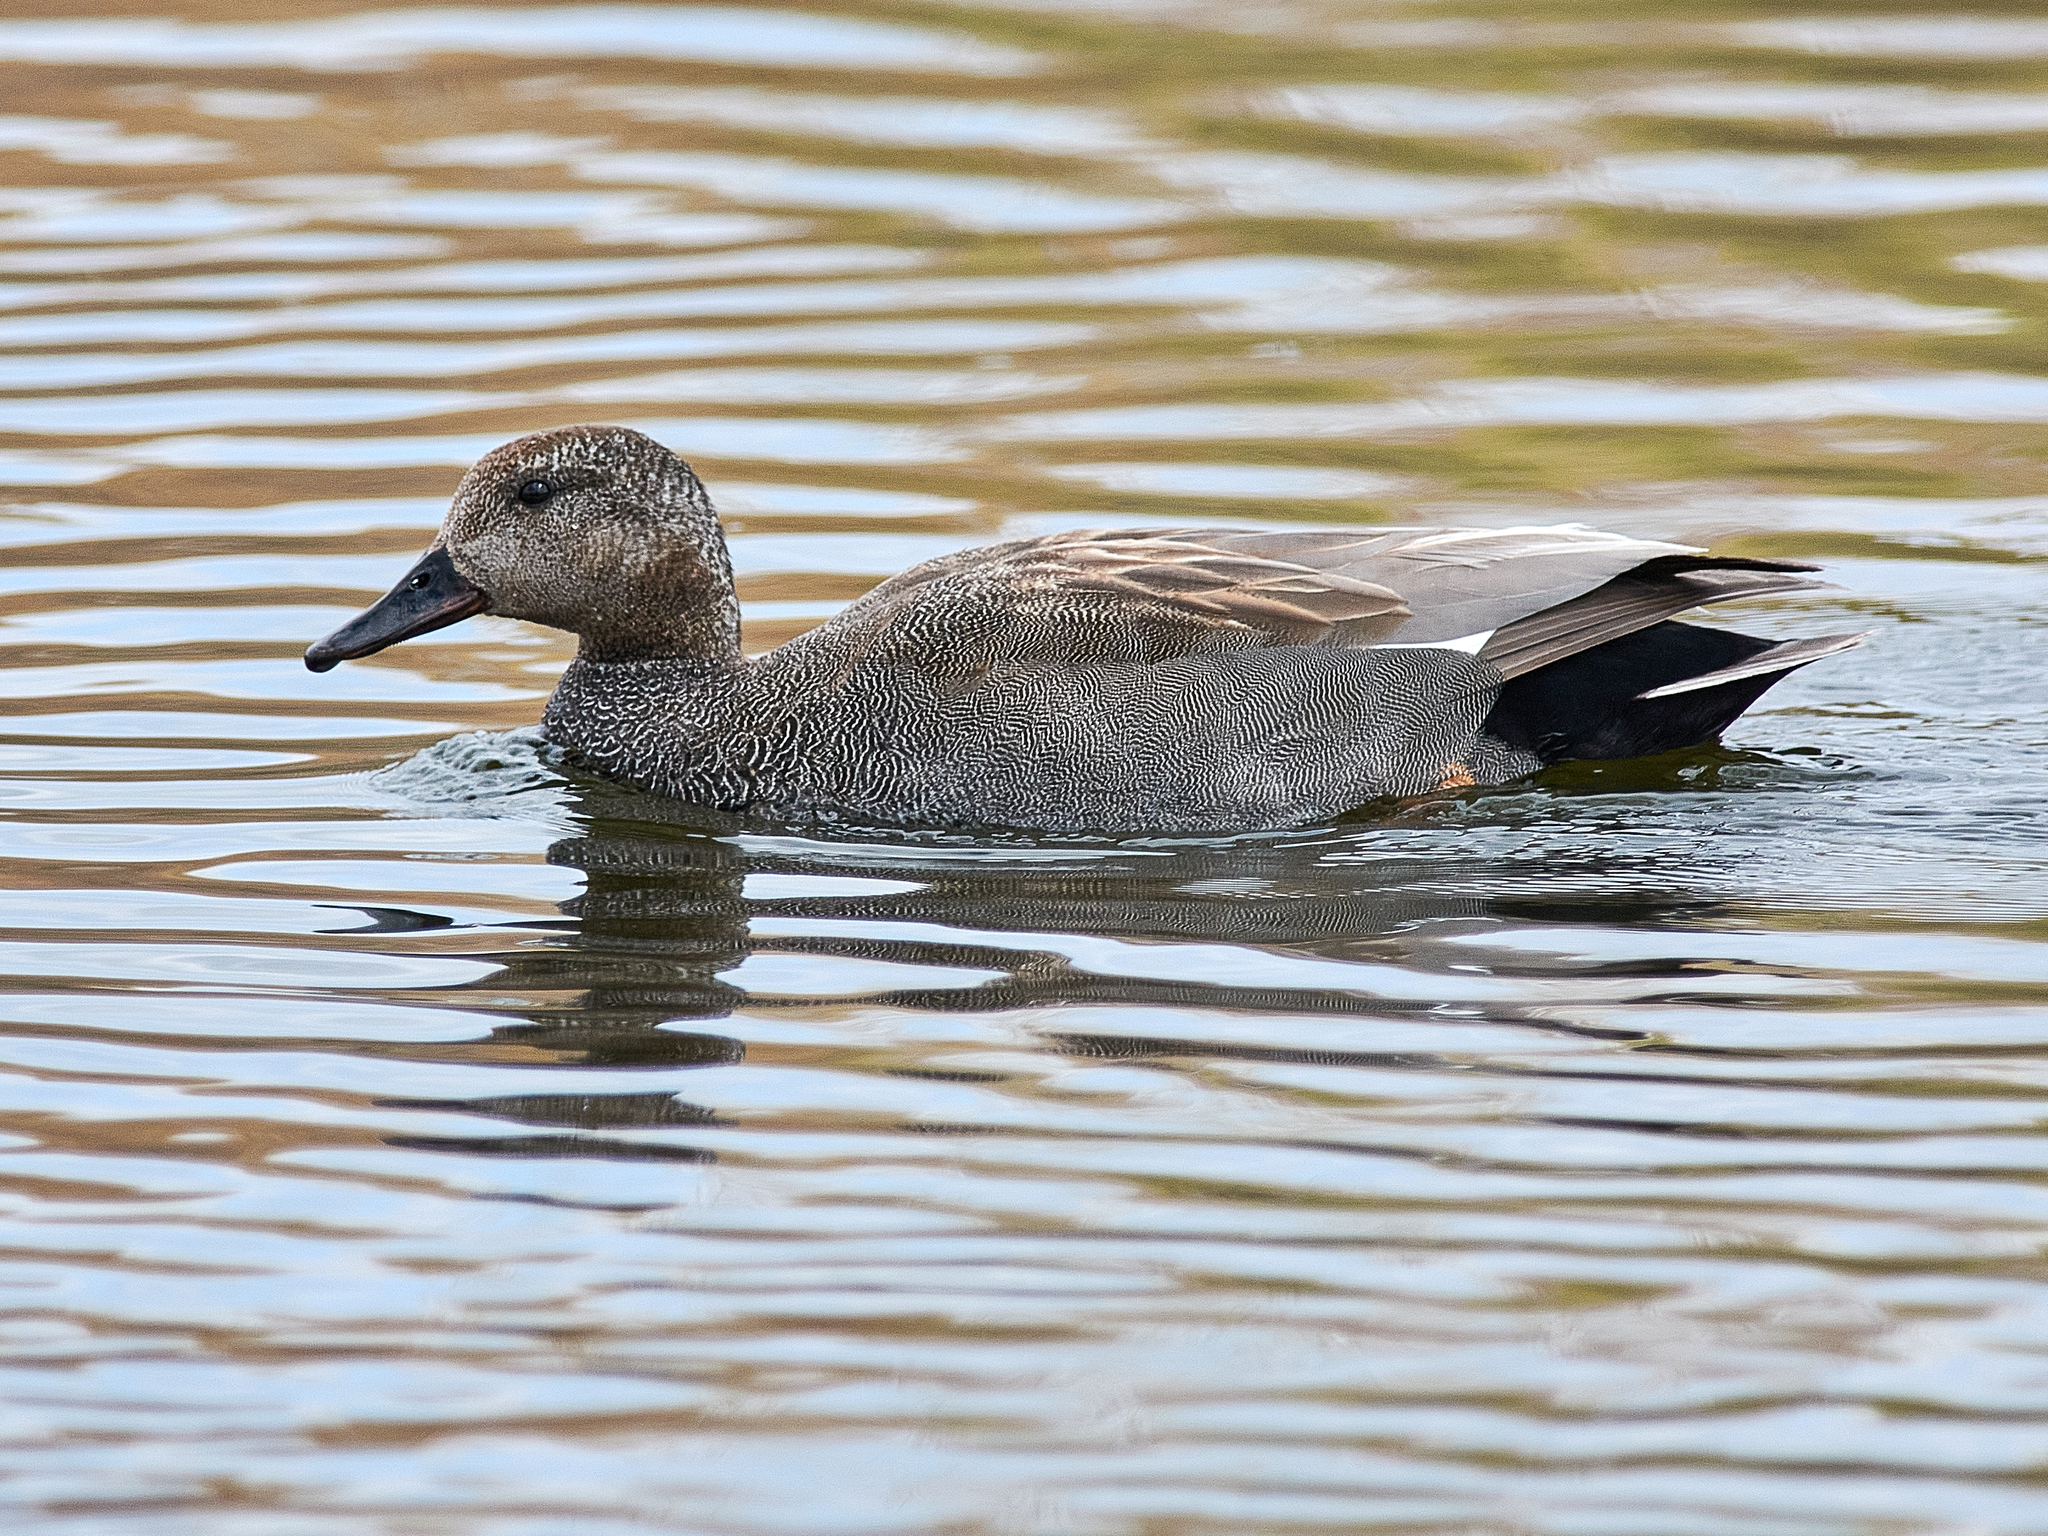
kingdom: Animalia
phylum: Chordata
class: Aves
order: Anseriformes
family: Anatidae
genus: Mareca
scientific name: Mareca strepera
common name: Gadwall
